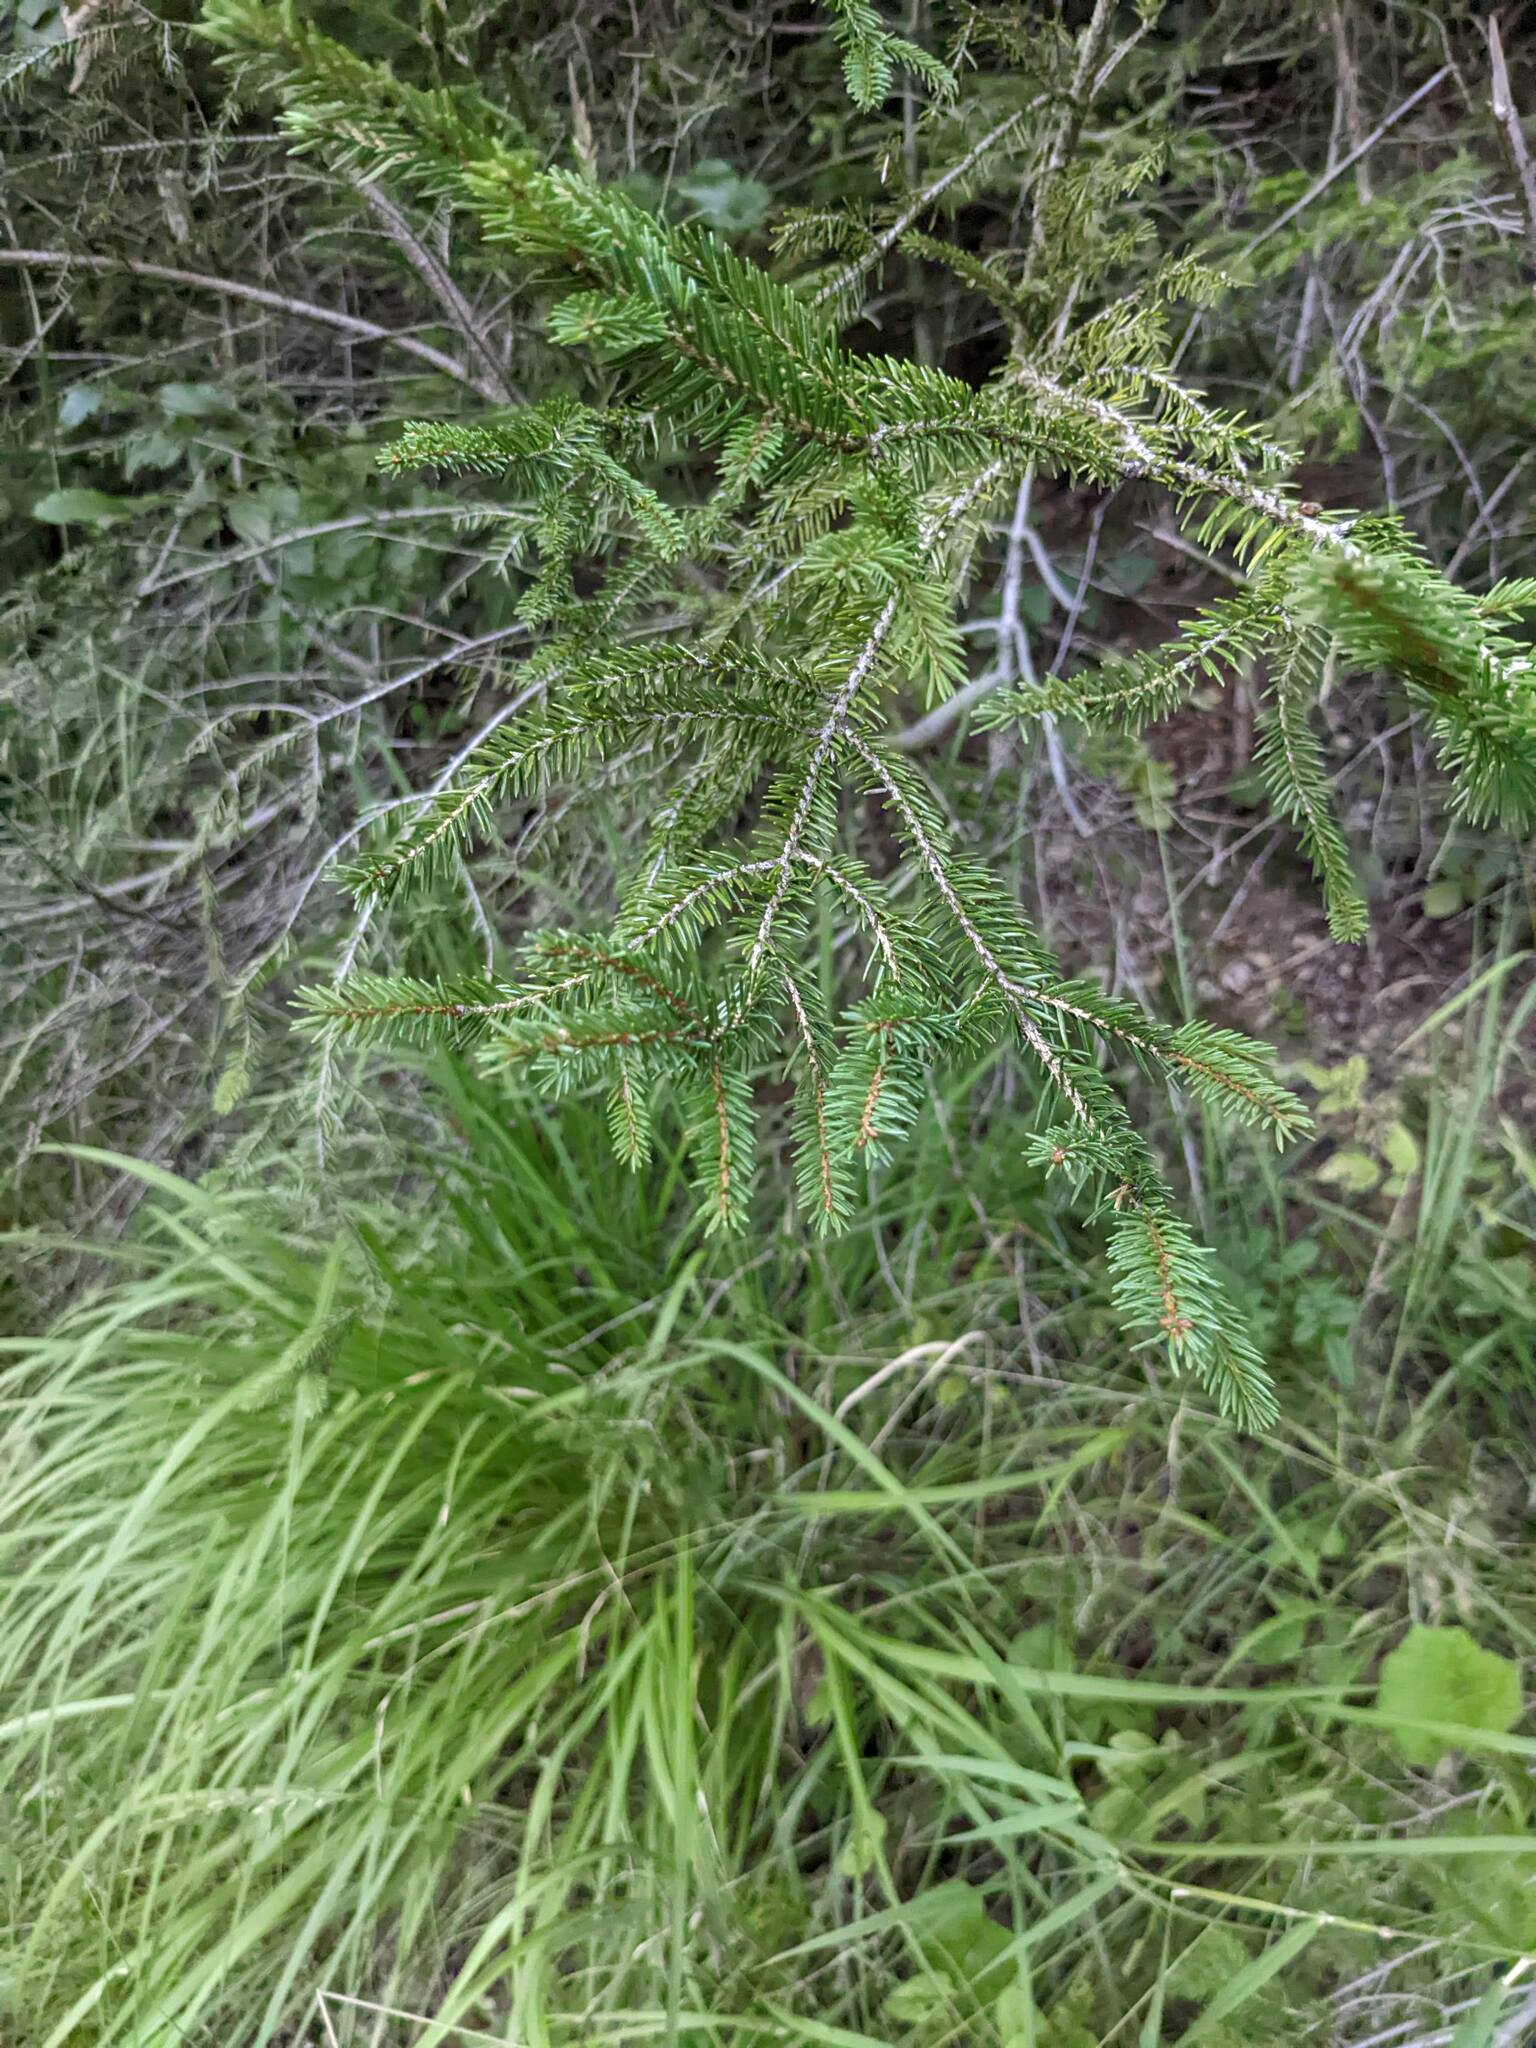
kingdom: Plantae
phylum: Tracheophyta
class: Pinopsida
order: Pinales
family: Pinaceae
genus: Picea
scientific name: Picea abies
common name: Norway spruce
